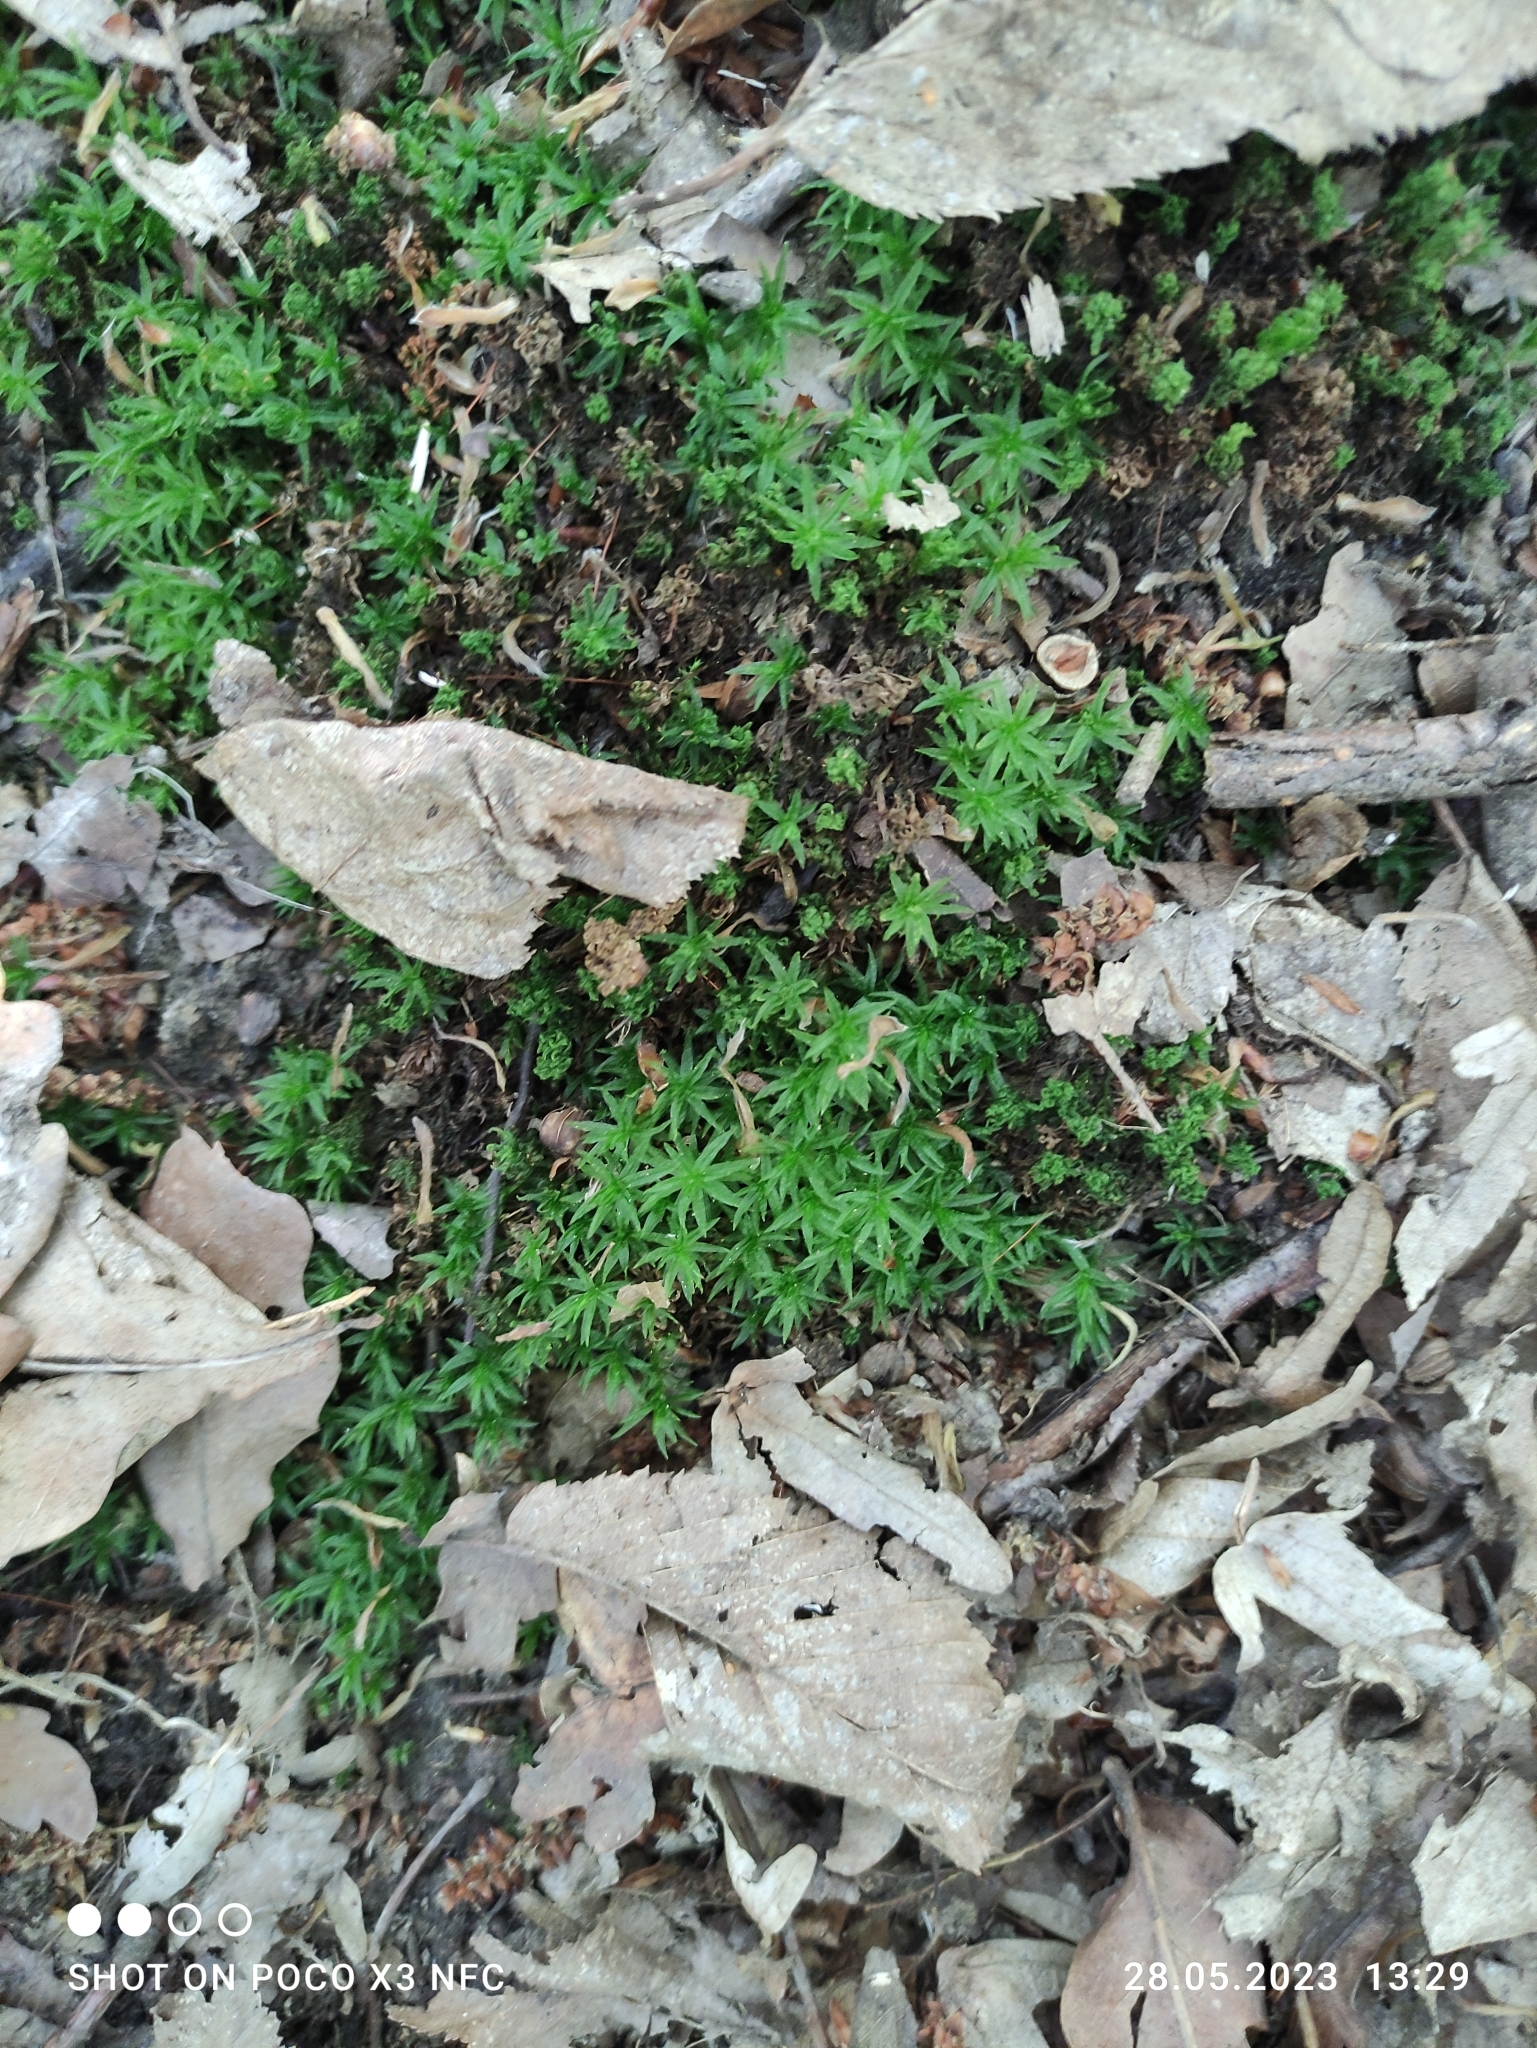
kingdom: Plantae
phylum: Bryophyta
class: Polytrichopsida
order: Polytrichales
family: Polytrichaceae
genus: Atrichum
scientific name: Atrichum undulatum
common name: Common smoothcap
